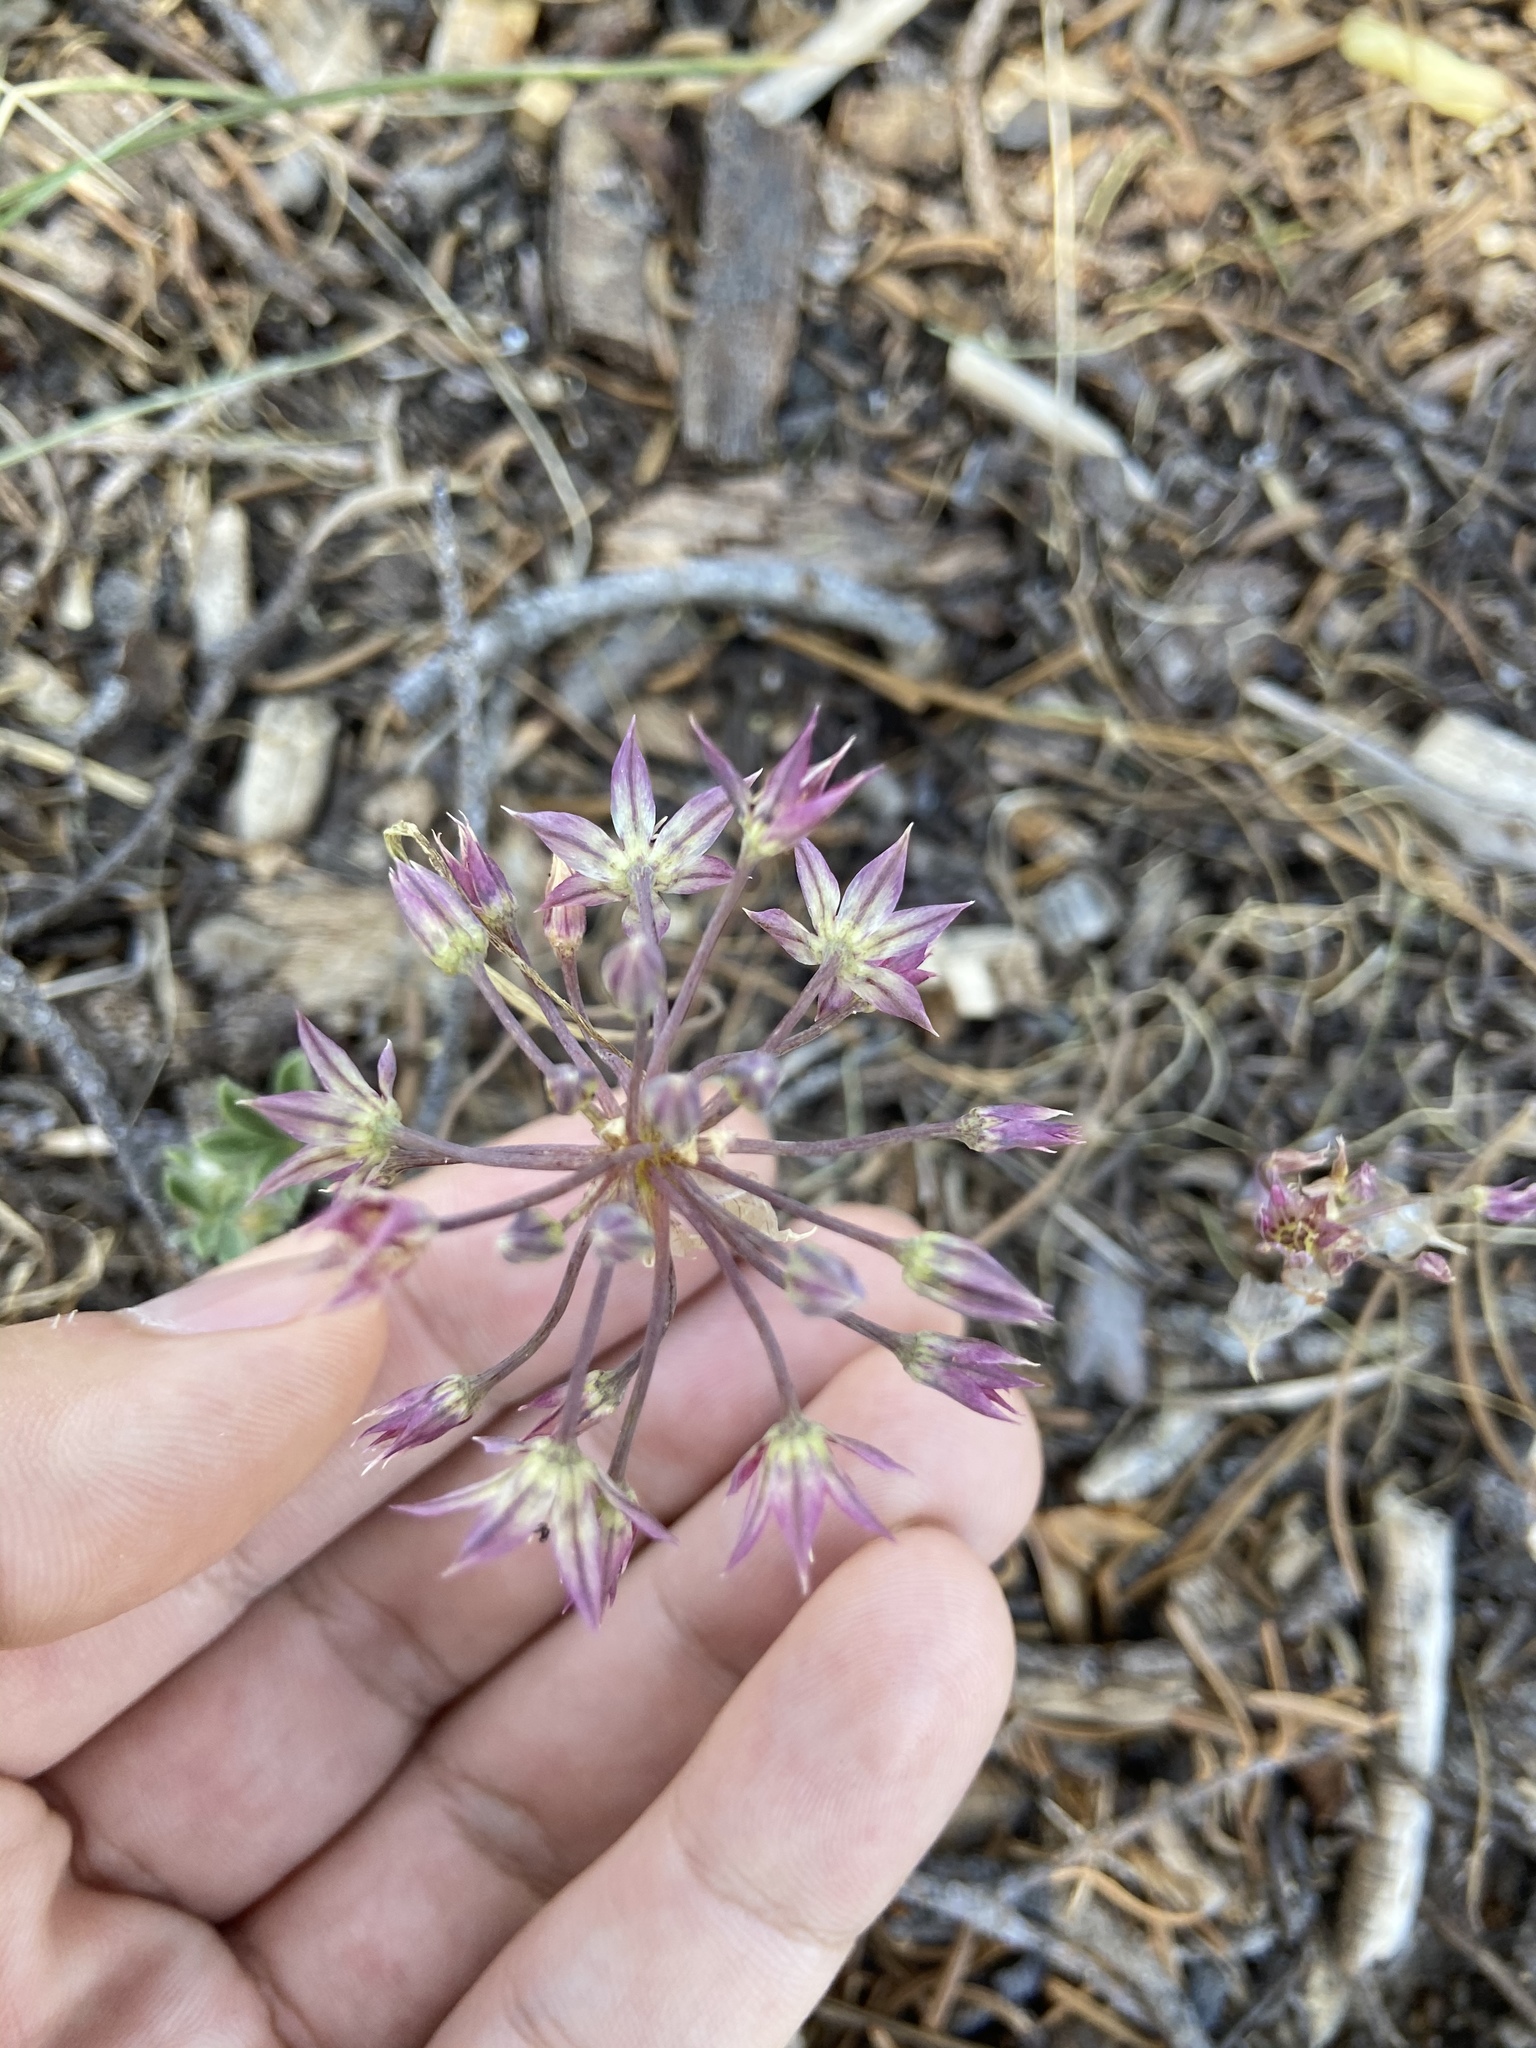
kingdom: Plantae
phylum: Tracheophyta
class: Liliopsida
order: Asparagales
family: Amaryllidaceae
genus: Allium
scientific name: Allium campanulatum
